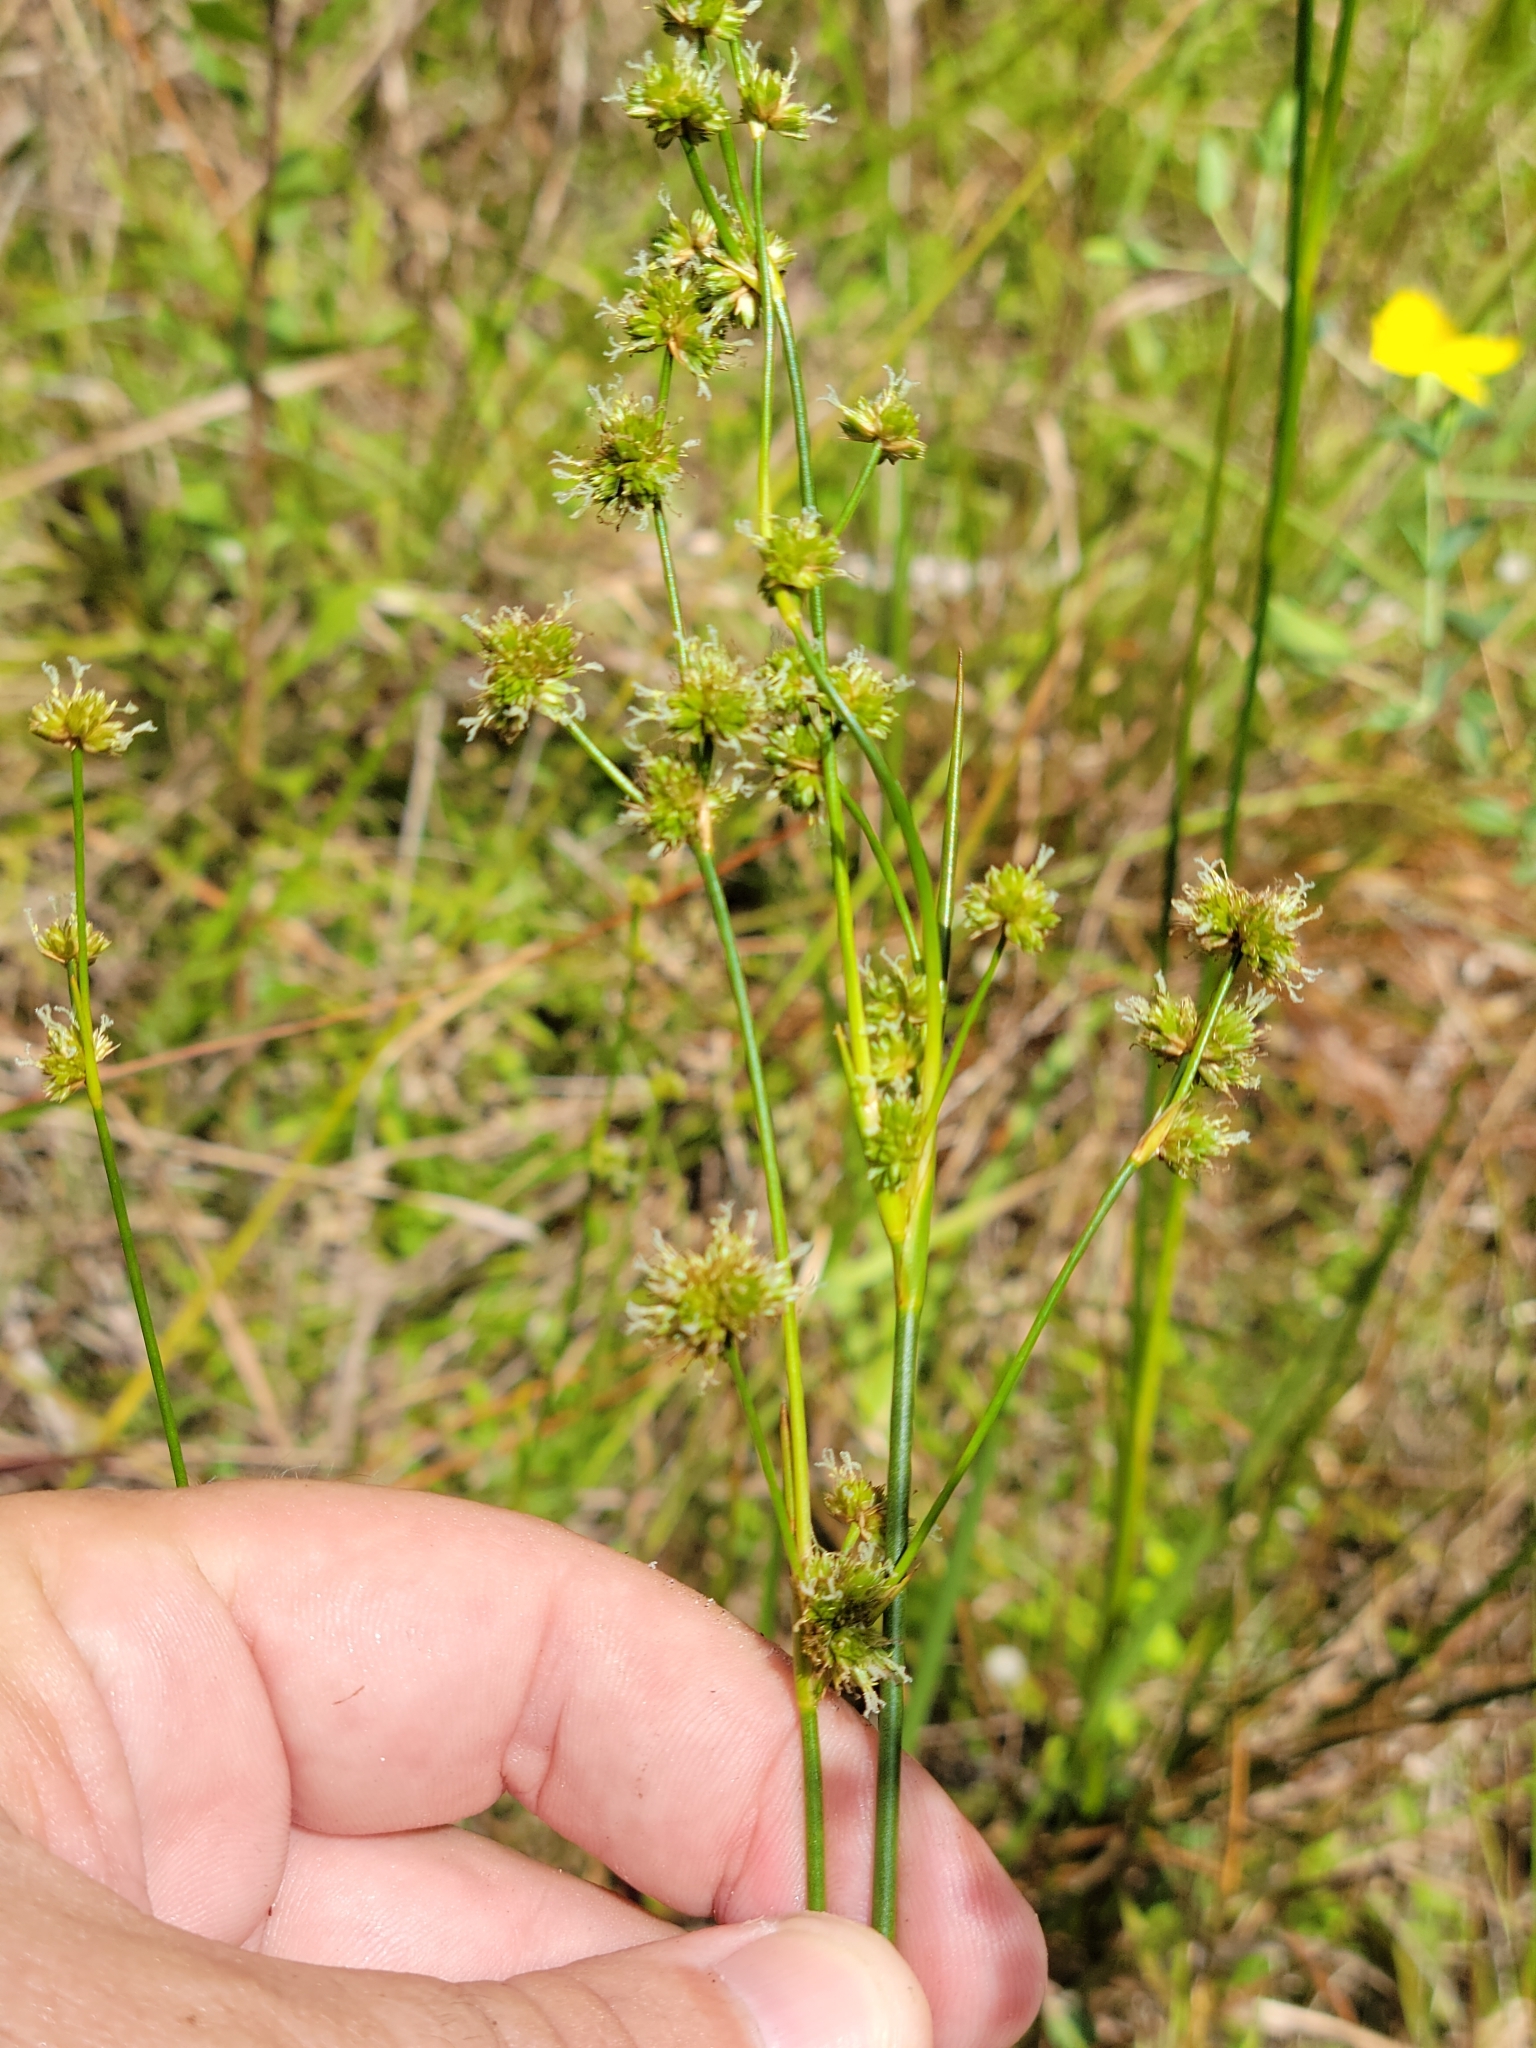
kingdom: Plantae
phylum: Tracheophyta
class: Liliopsida
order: Poales
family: Juncaceae
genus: Juncus
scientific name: Juncus scirpoides
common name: Needlepod rush
